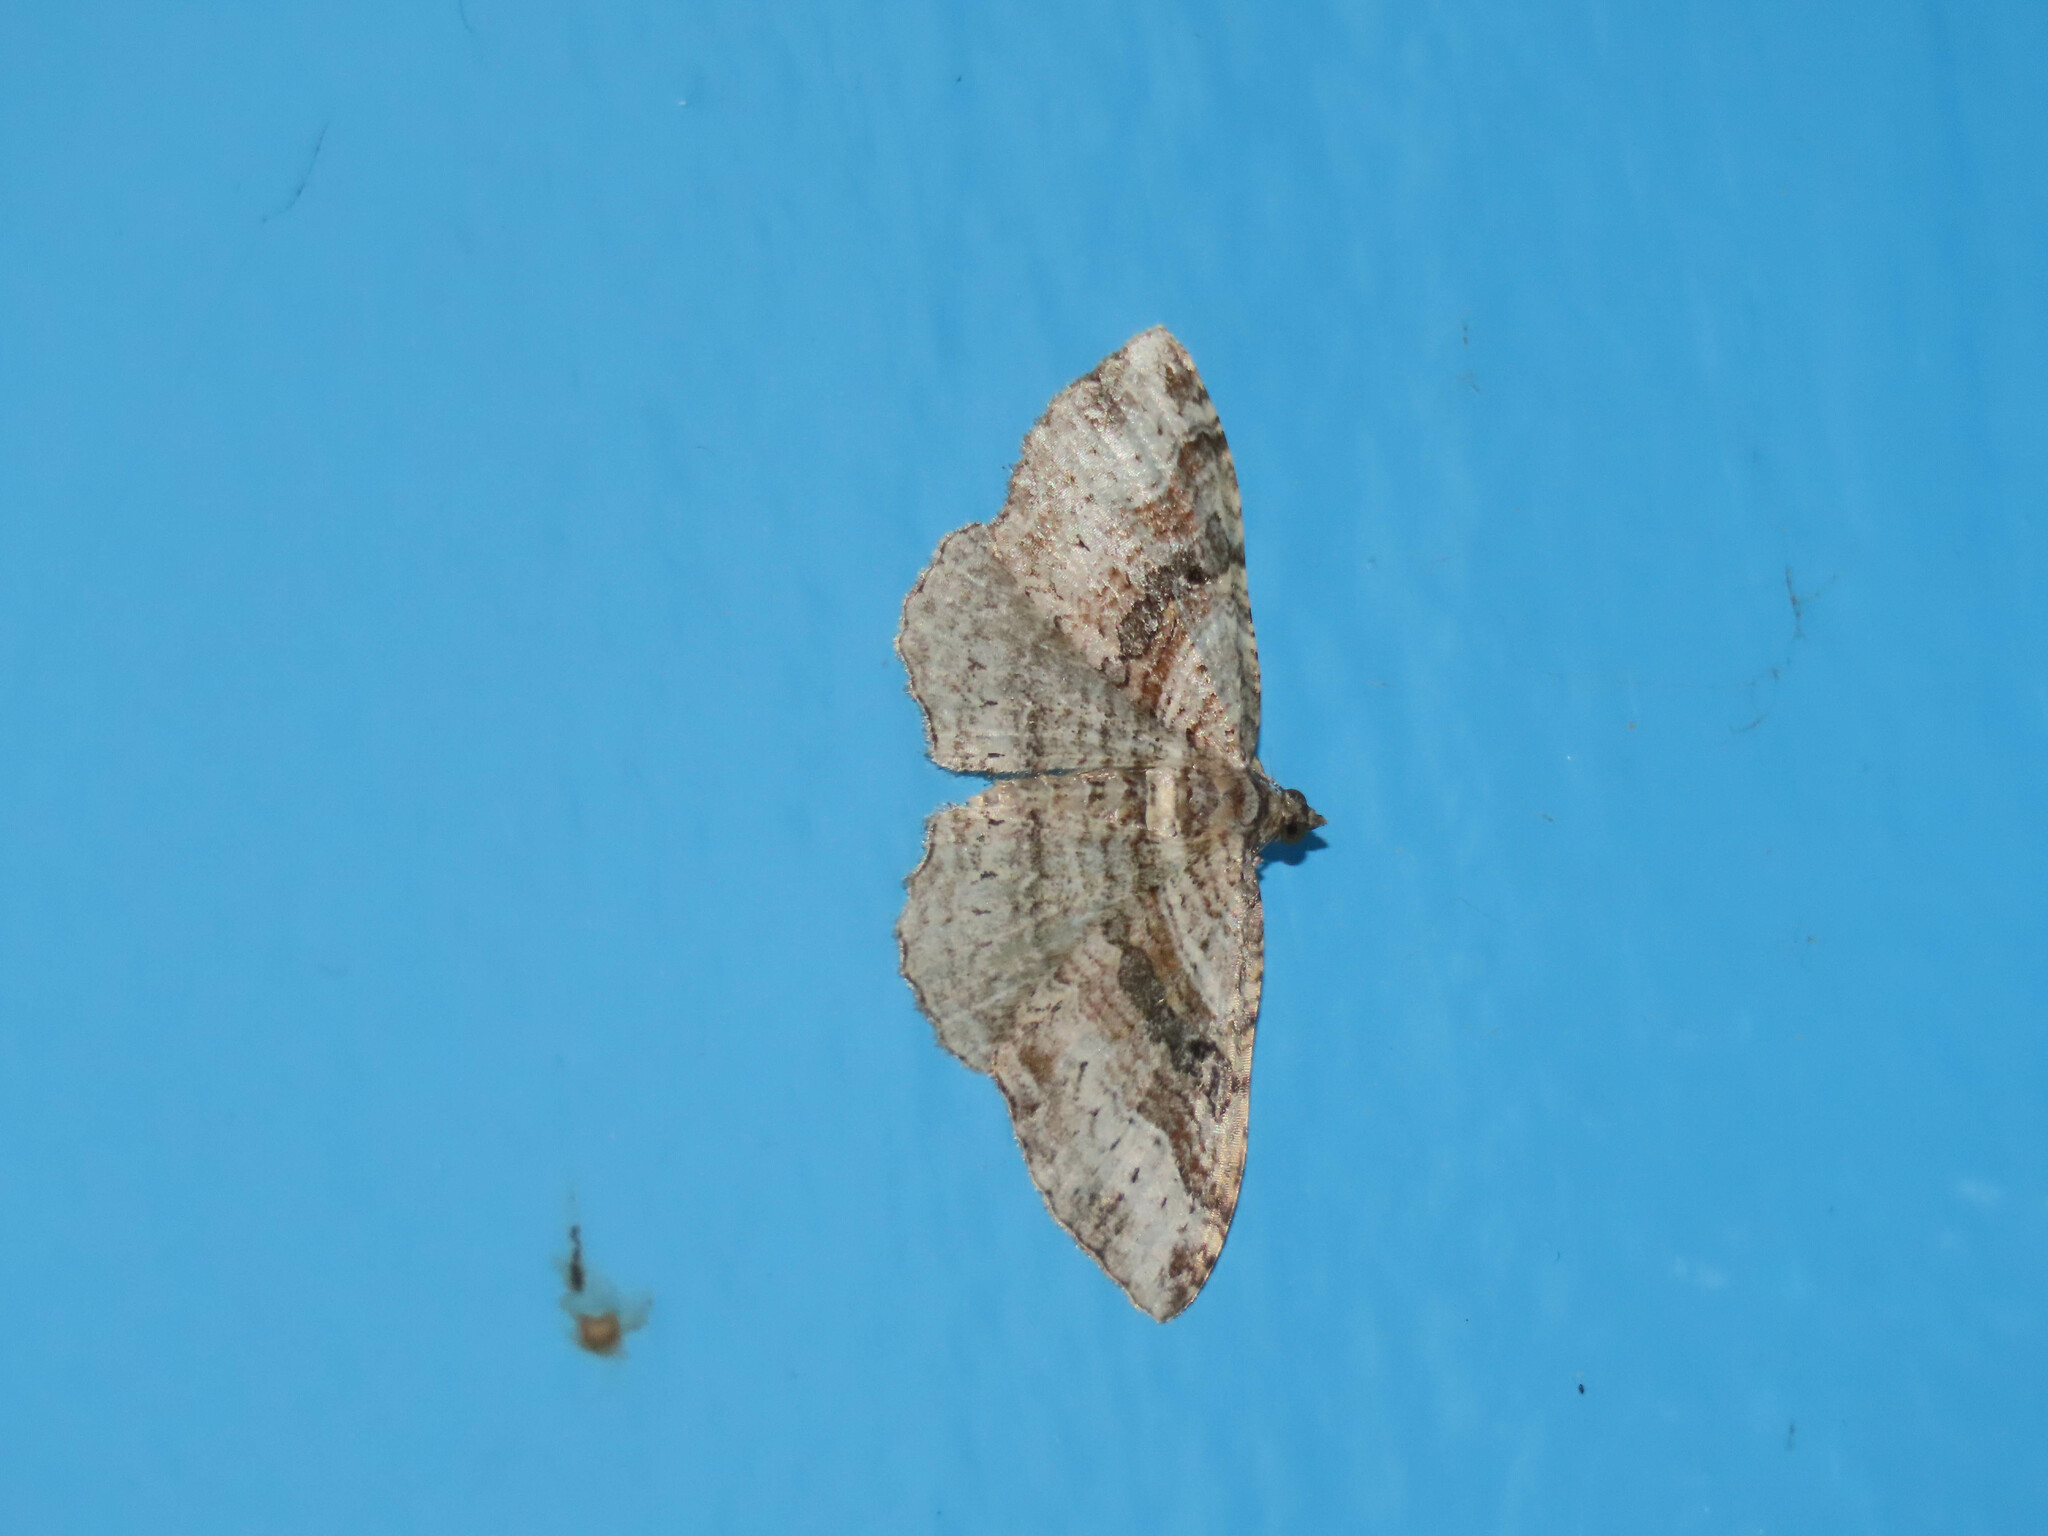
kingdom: Animalia
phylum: Arthropoda
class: Insecta
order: Lepidoptera
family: Geometridae
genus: Costaconvexa
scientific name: Costaconvexa centrostrigaria
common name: Bent-line carpet
